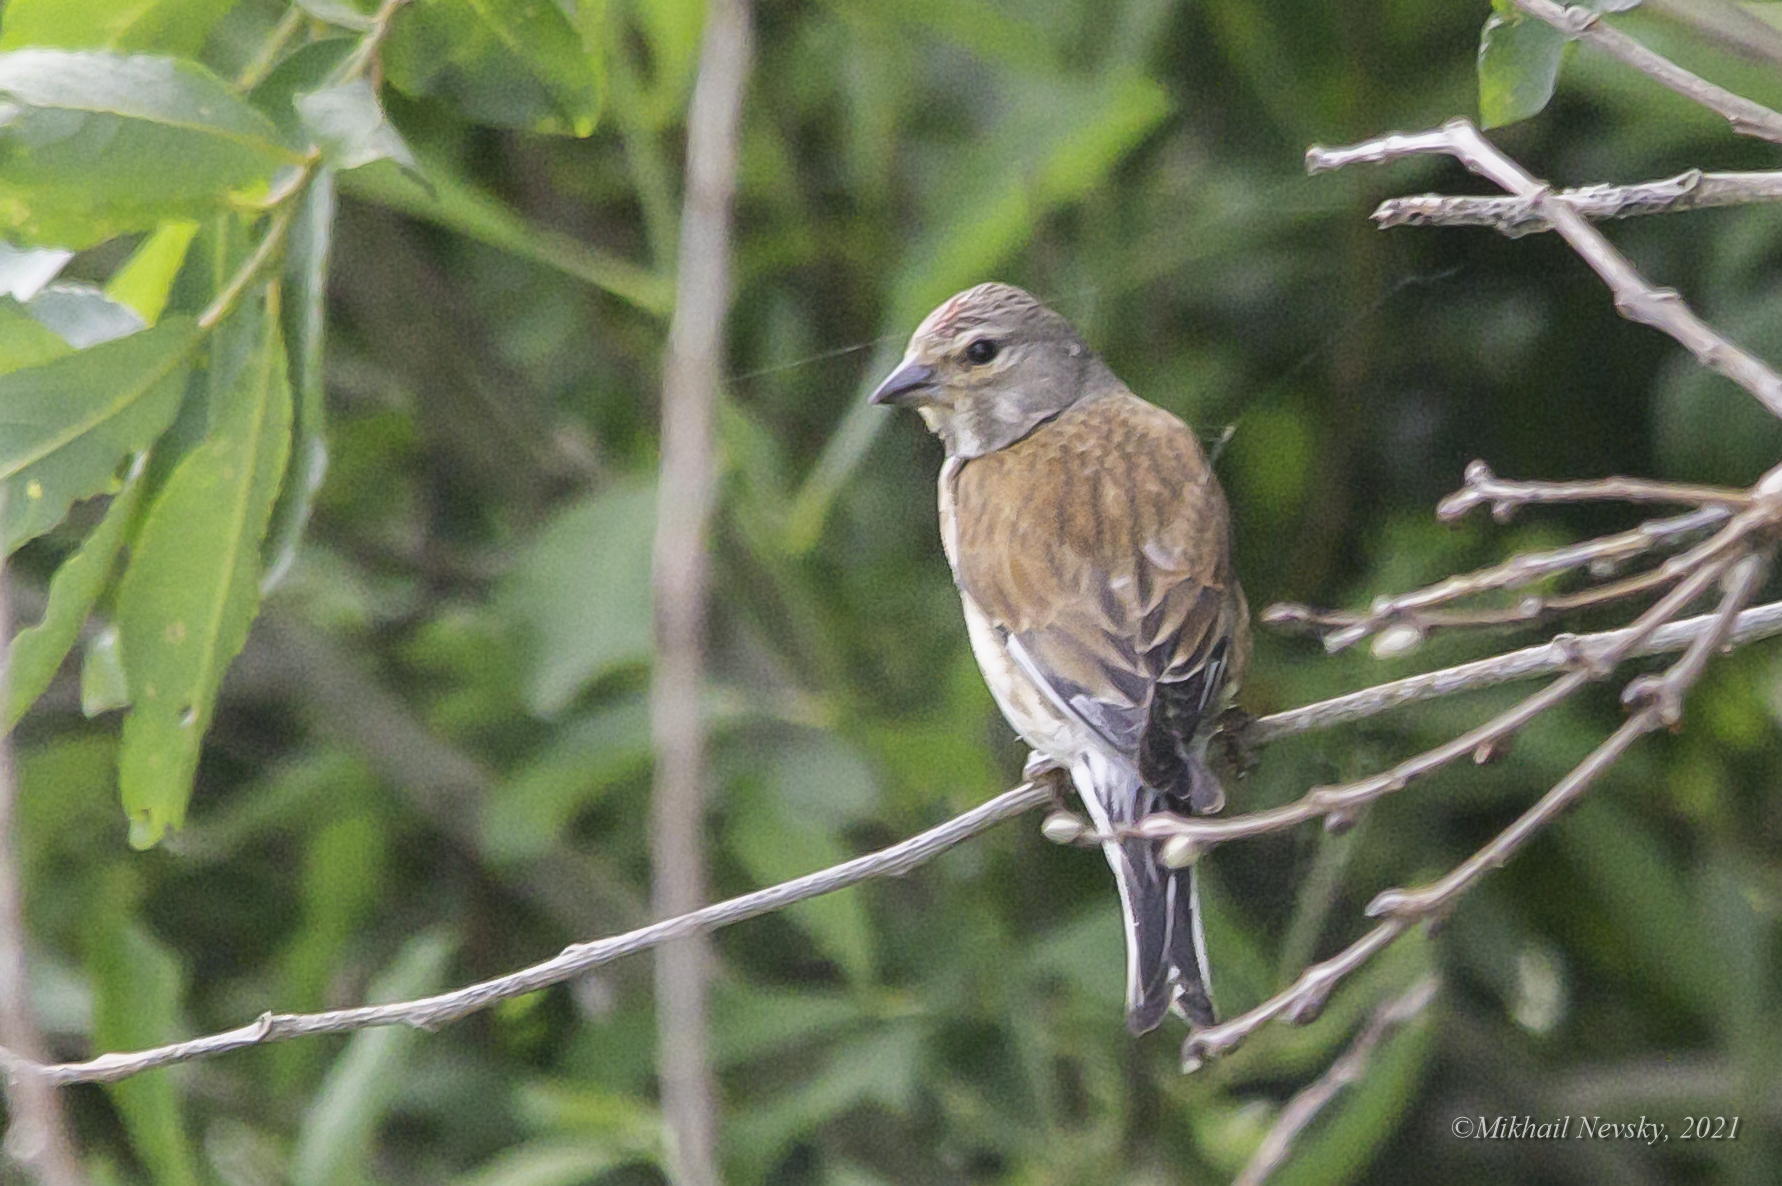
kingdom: Animalia
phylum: Chordata
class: Aves
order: Passeriformes
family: Fringillidae
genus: Linaria
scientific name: Linaria cannabina
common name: Common linnet
